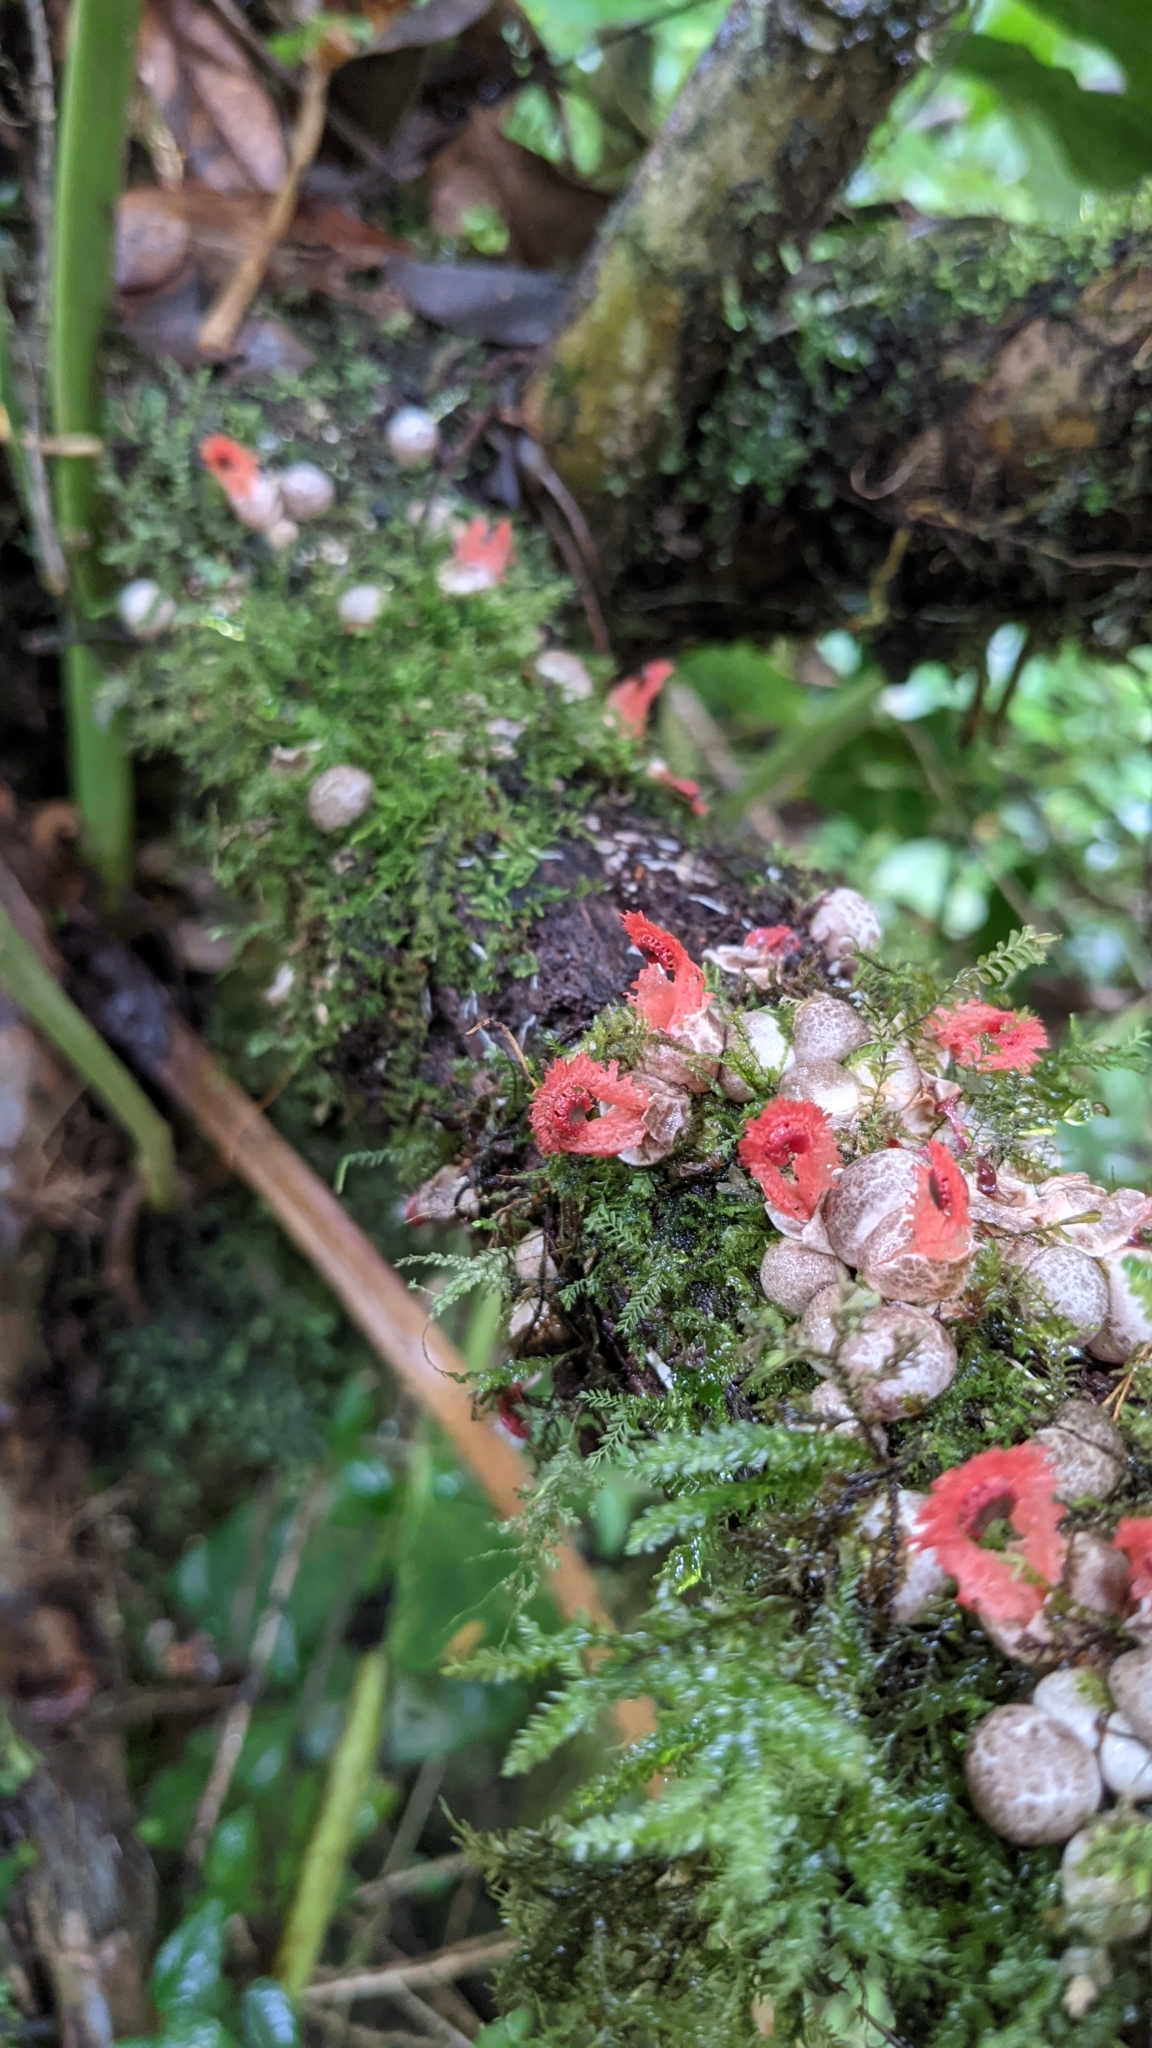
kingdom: Fungi
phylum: Basidiomycota
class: Agaricomycetes
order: Phallales
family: Phallaceae
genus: Laternea
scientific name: Laternea pusilla
